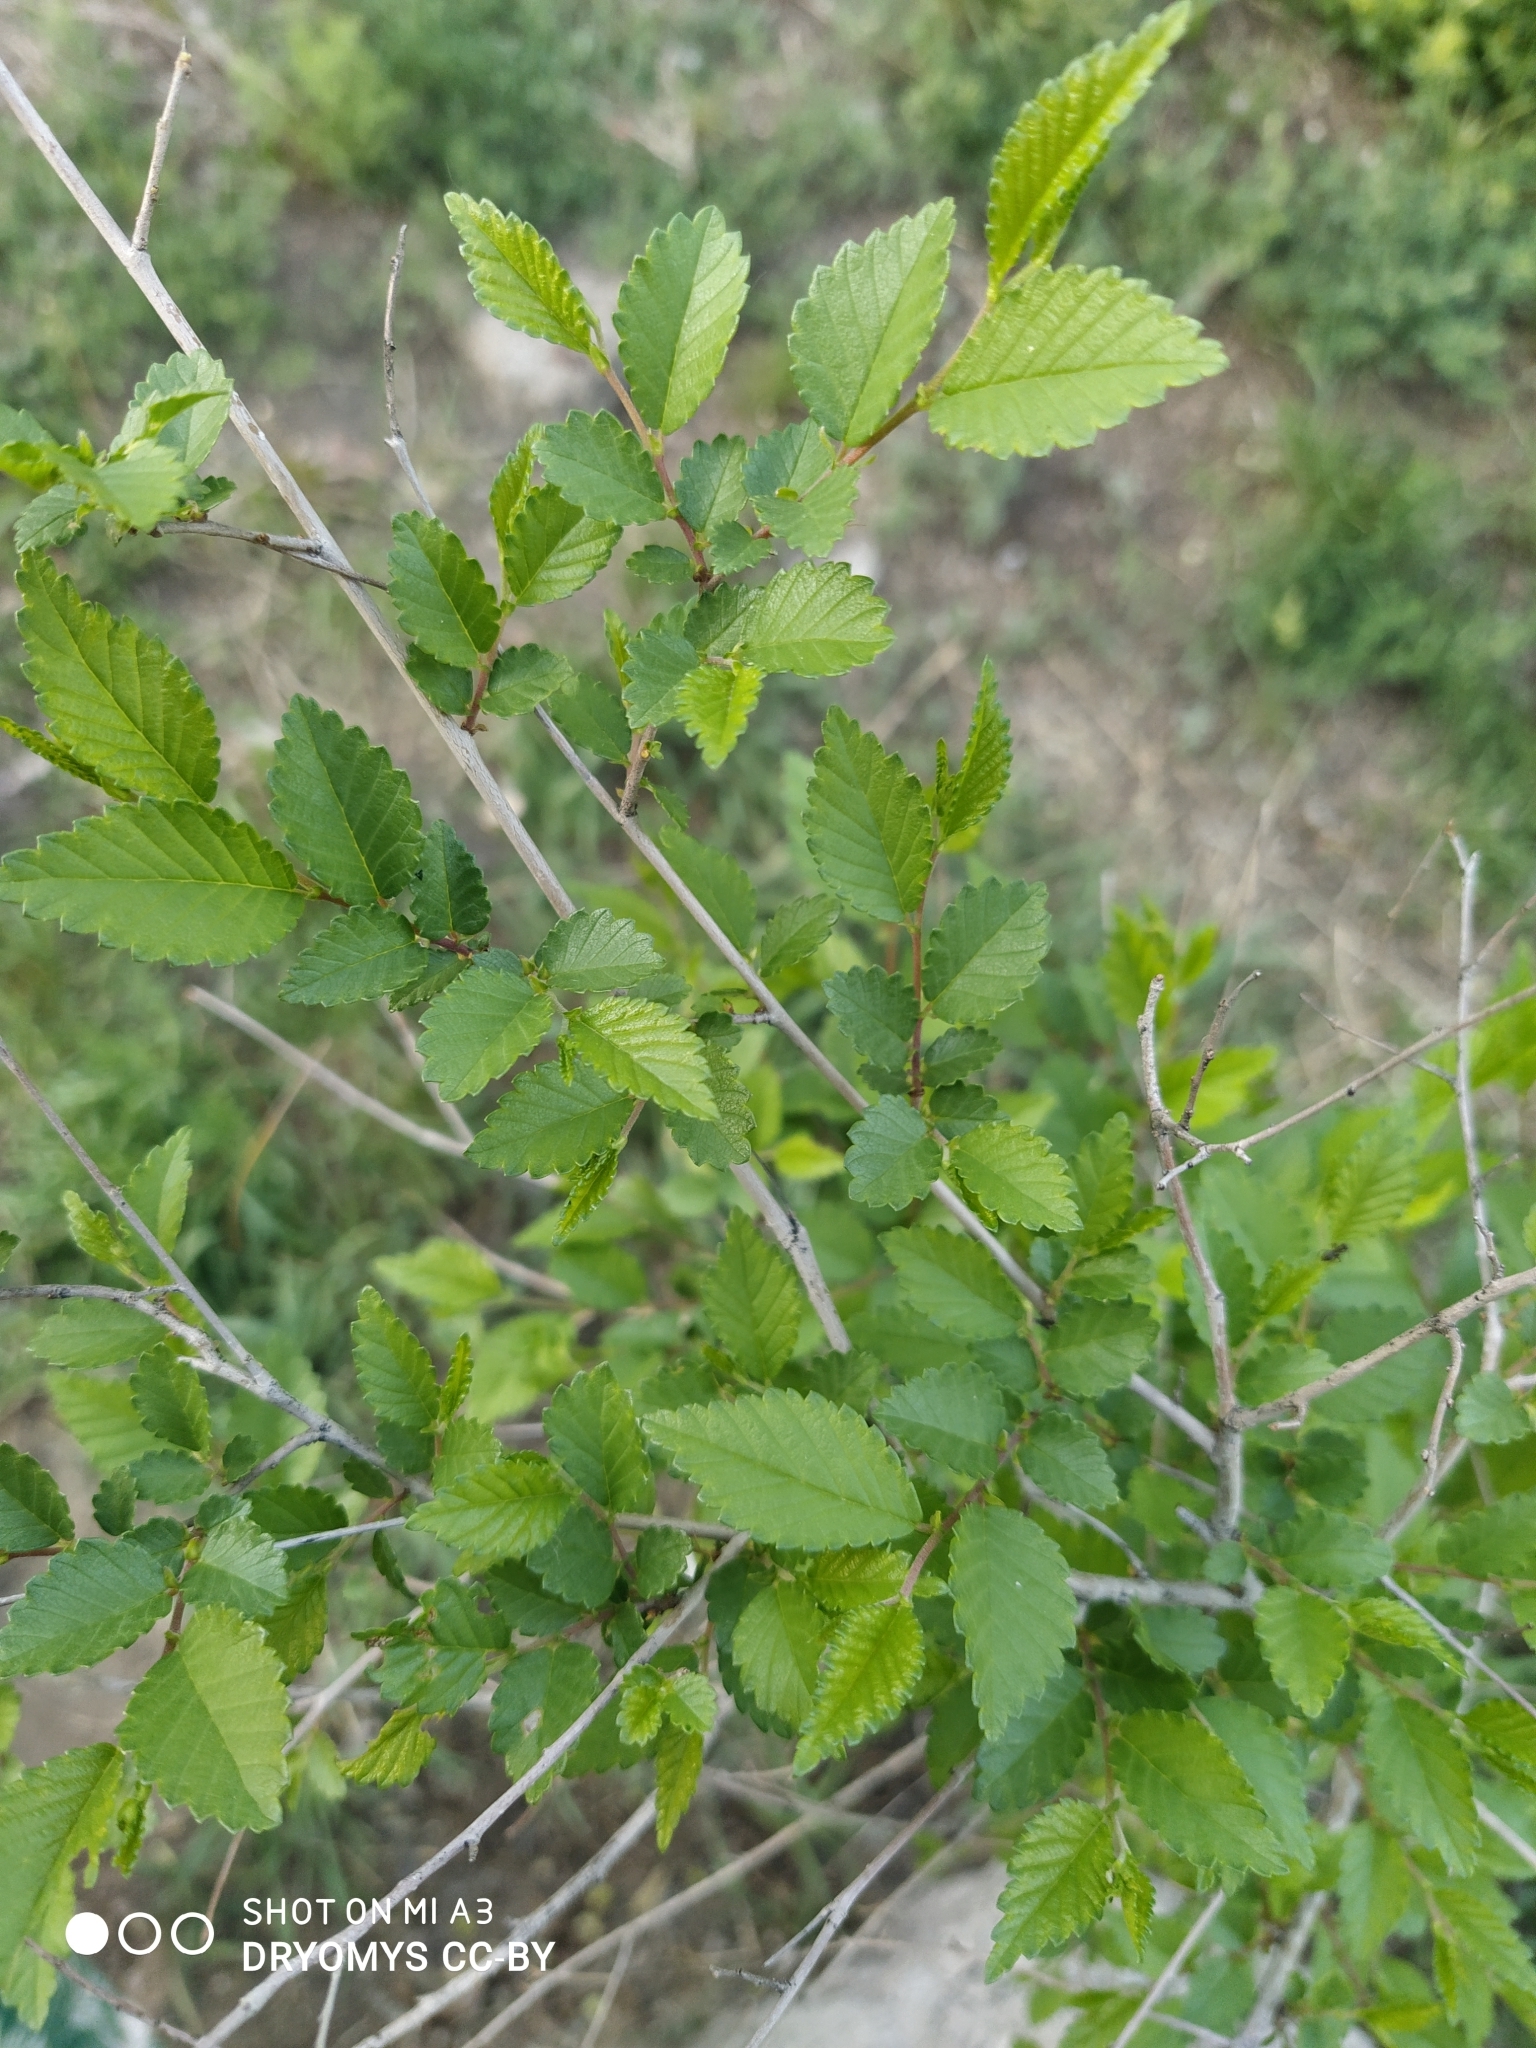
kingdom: Plantae
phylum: Tracheophyta
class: Magnoliopsida
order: Rosales
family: Ulmaceae
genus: Ulmus
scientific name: Ulmus pumila
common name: Siberian elm
